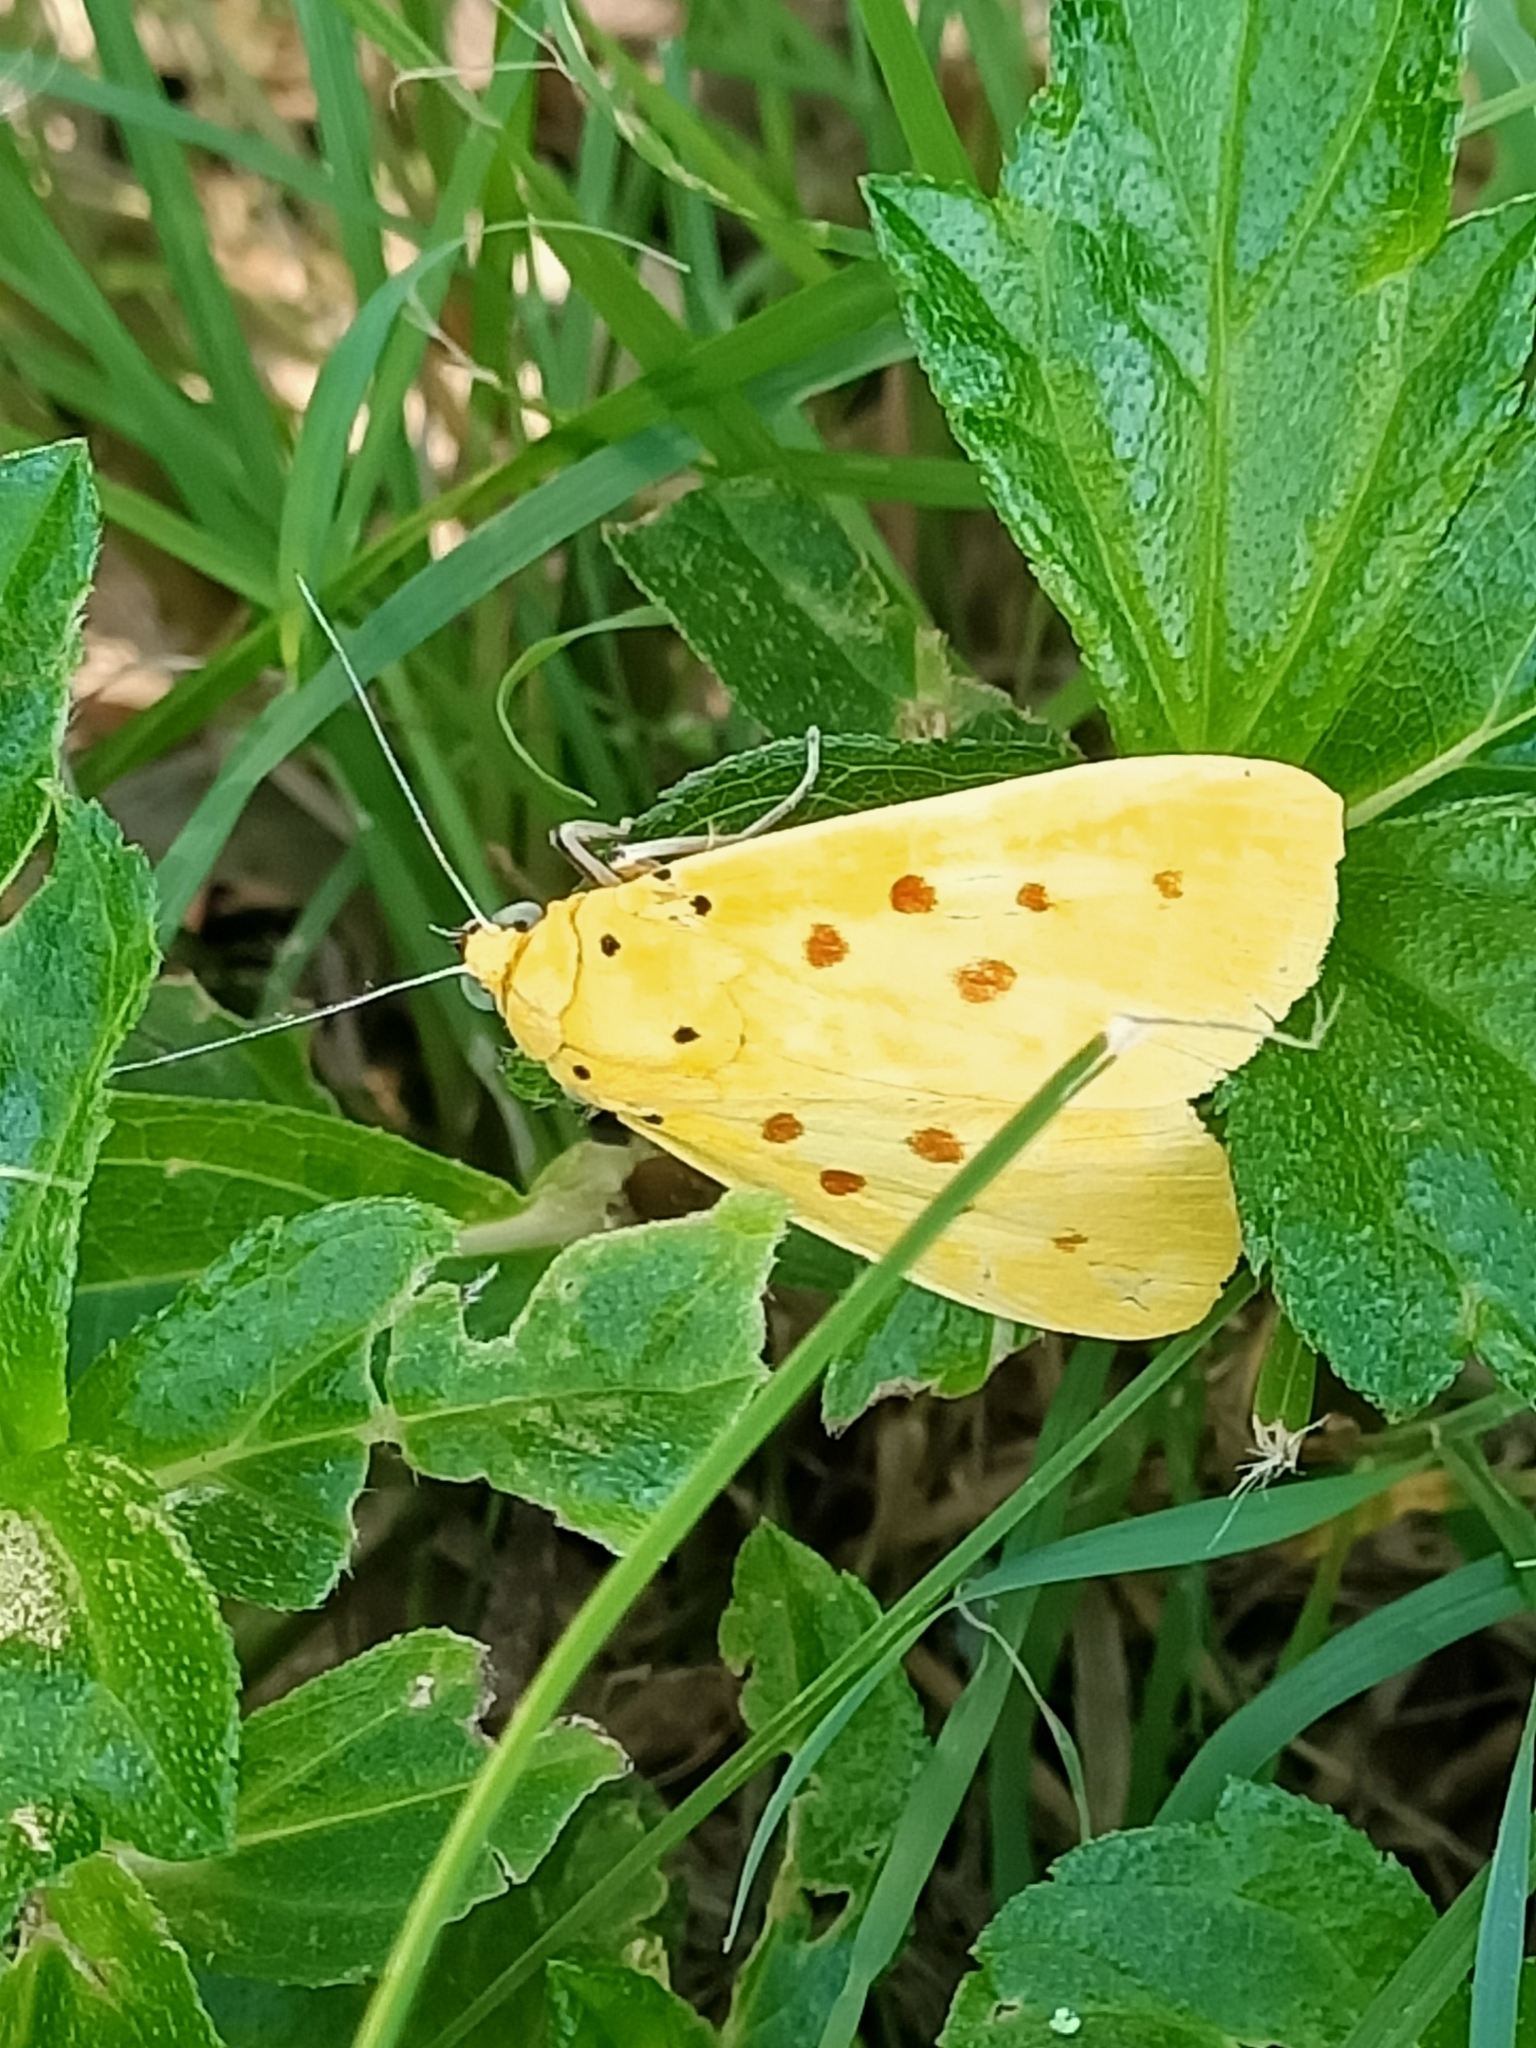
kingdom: Animalia
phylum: Arthropoda
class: Insecta
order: Lepidoptera
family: Noctuidae
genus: Agape
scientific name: Agape chloropyga
